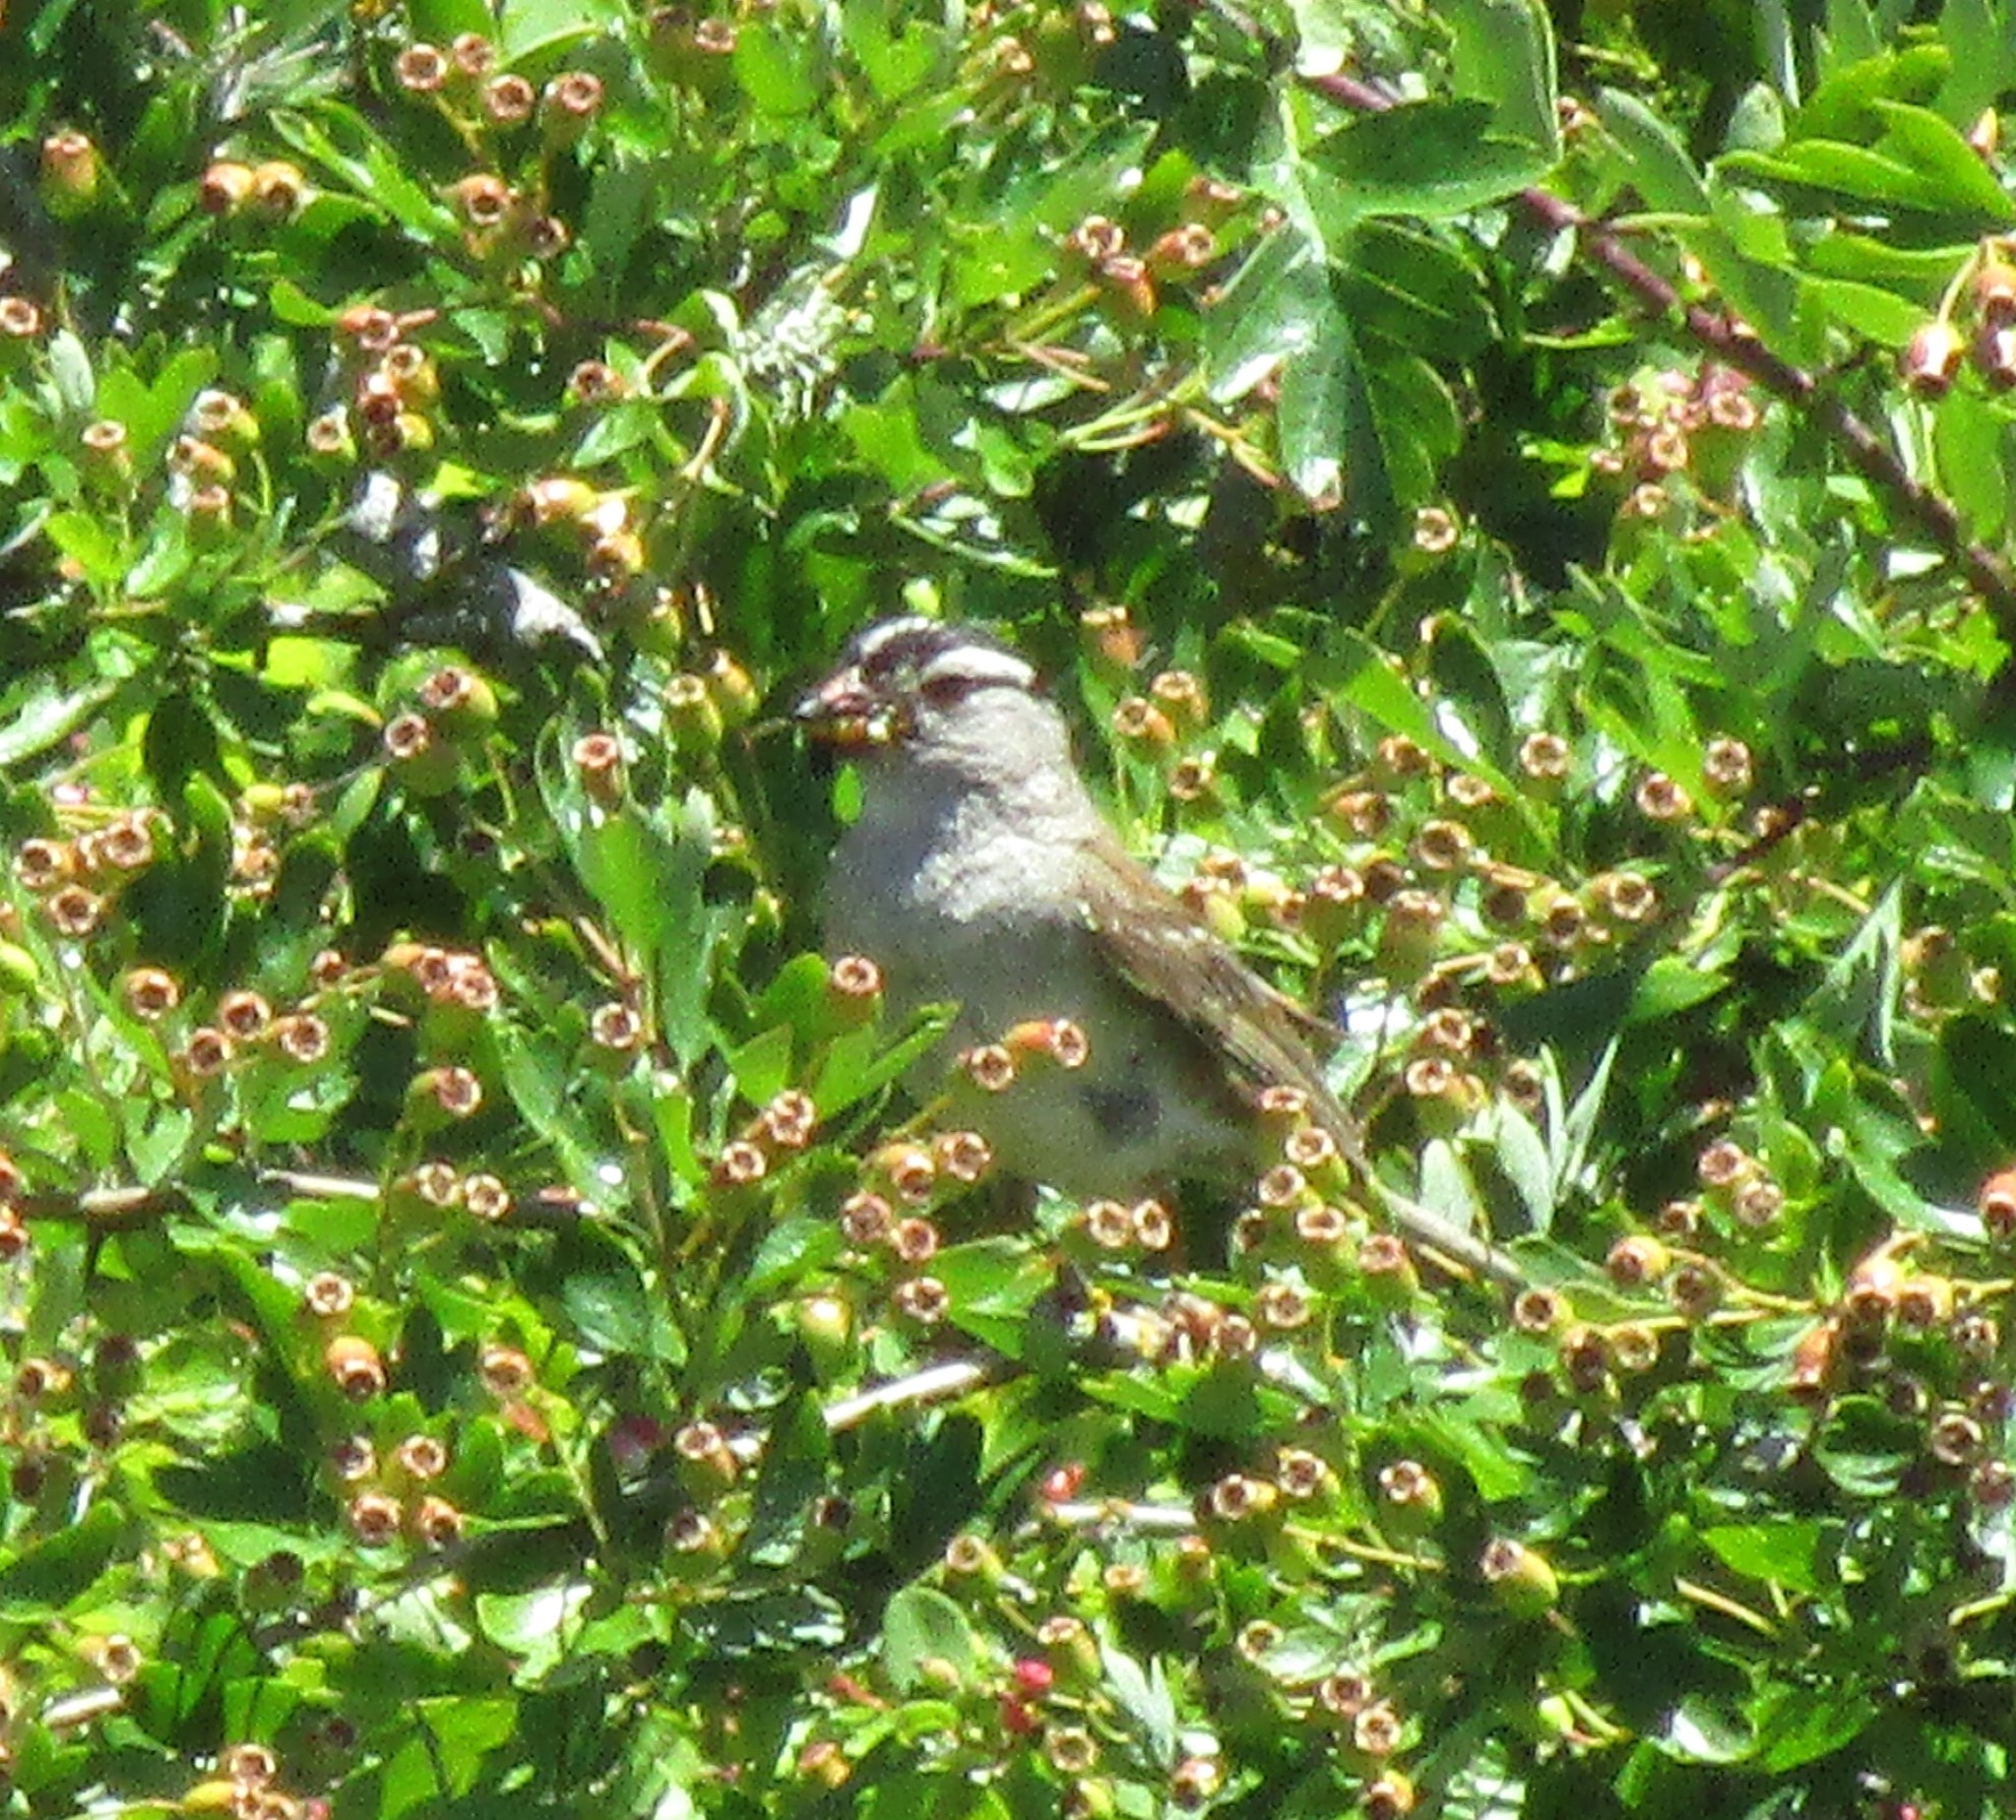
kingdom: Animalia
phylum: Chordata
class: Aves
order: Passeriformes
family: Passerellidae
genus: Zonotrichia
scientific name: Zonotrichia leucophrys
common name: White-crowned sparrow
